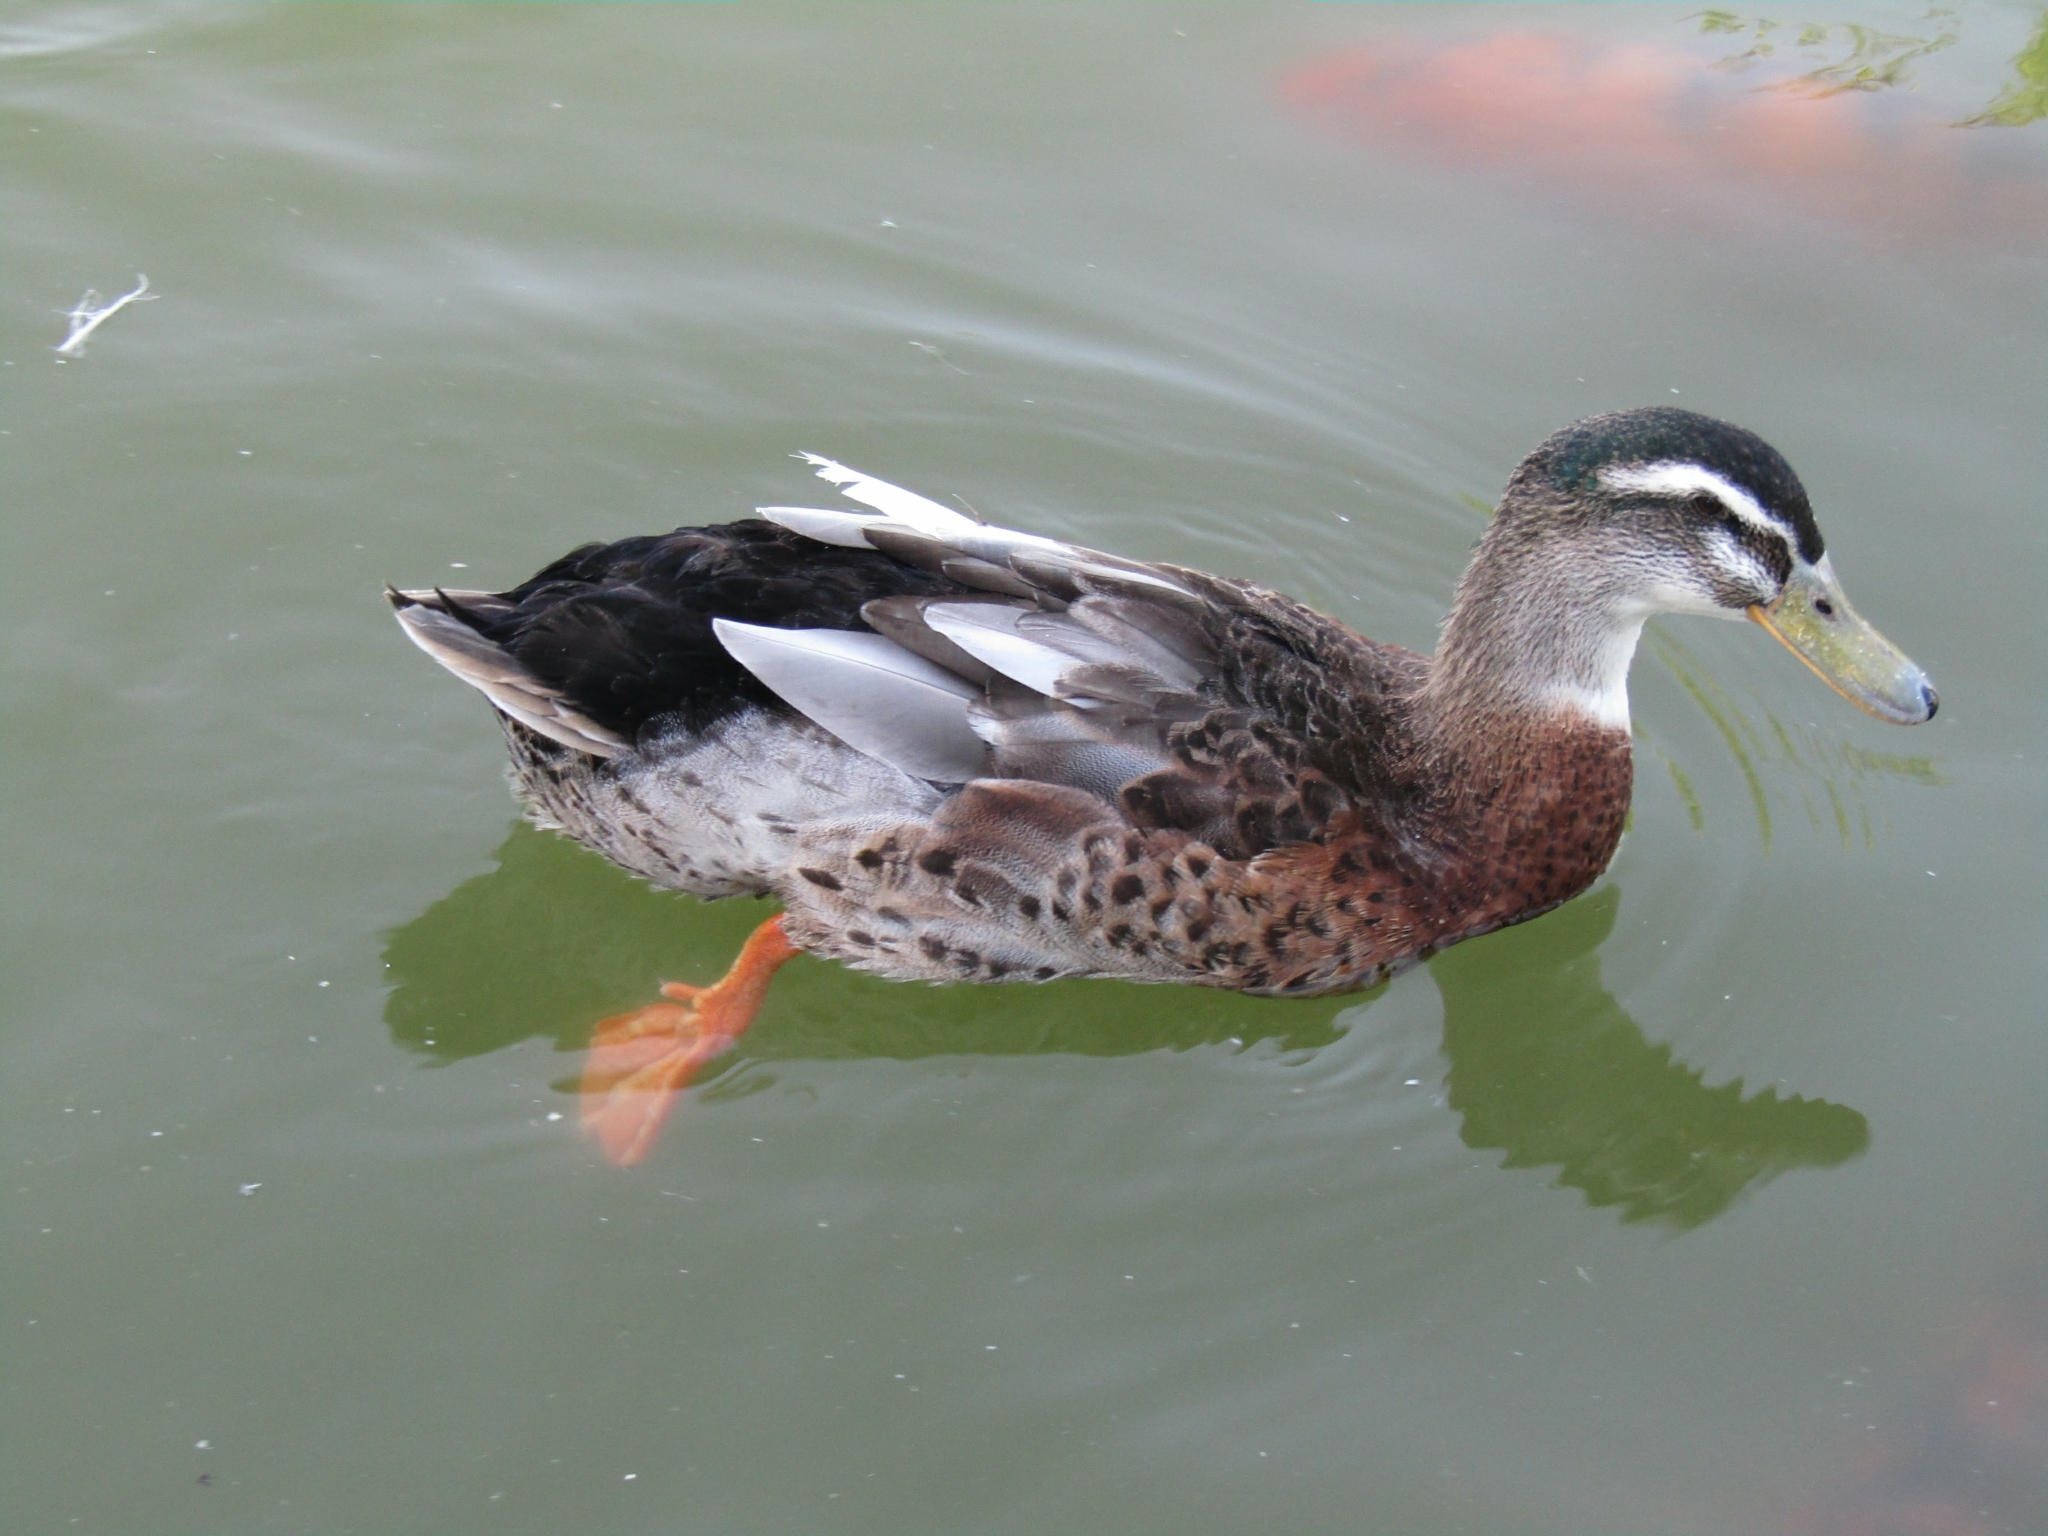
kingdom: Animalia
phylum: Chordata
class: Aves
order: Anseriformes
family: Anatidae
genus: Anas
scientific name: Anas platyrhynchos
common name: Mallard
